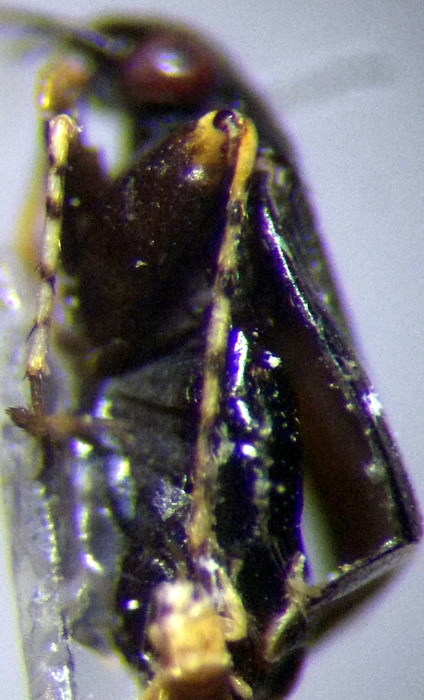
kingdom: Animalia
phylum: Arthropoda
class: Insecta
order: Hemiptera
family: Miridae
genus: Chlamydatus
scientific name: Chlamydatus pullus
